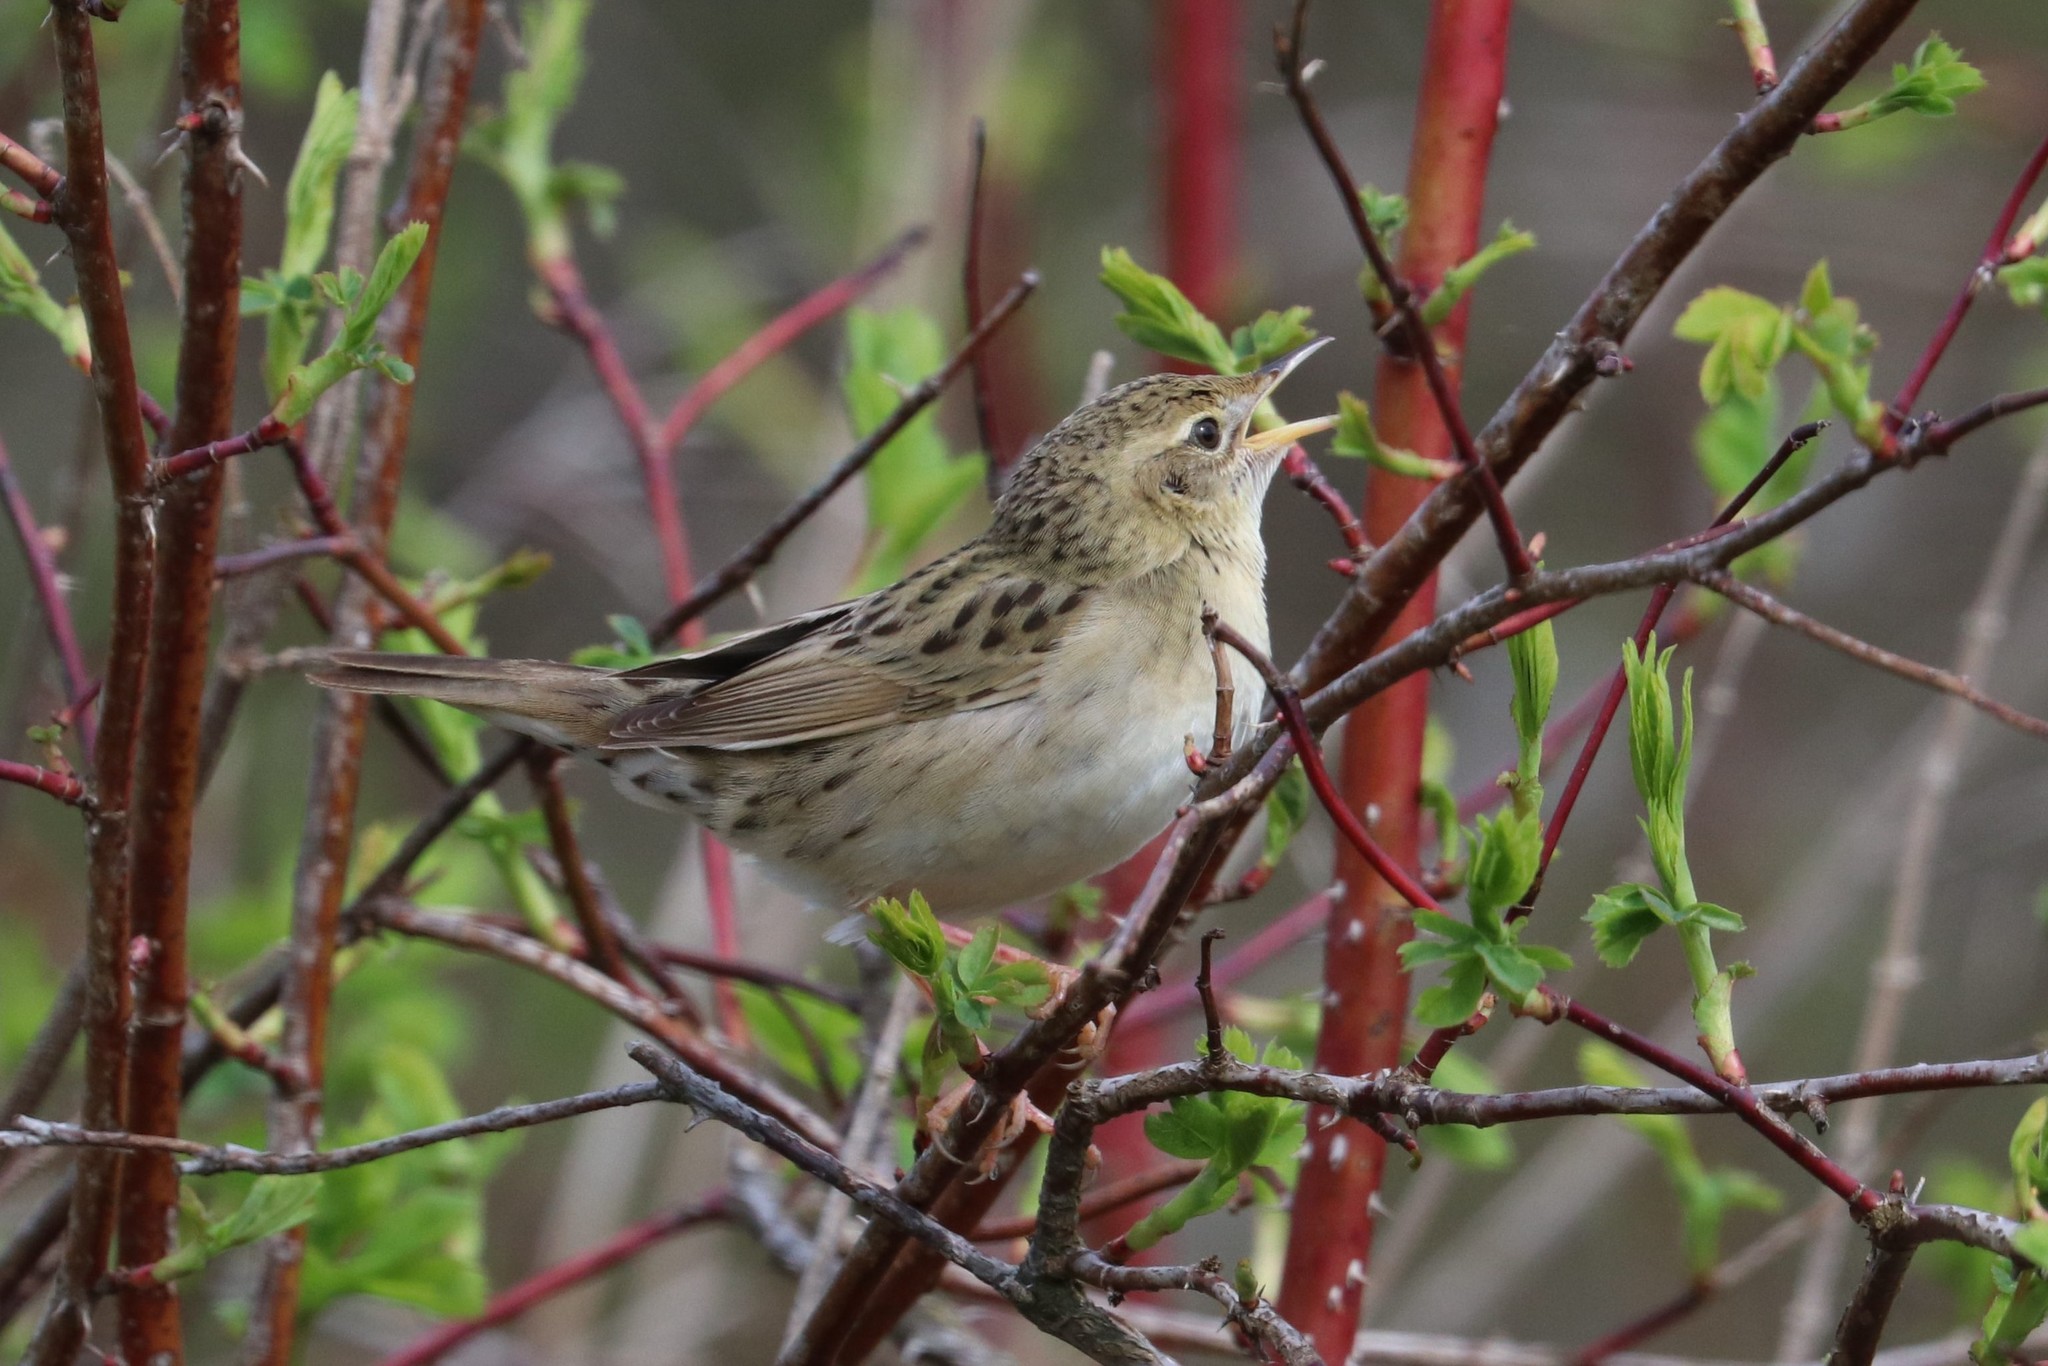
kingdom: Animalia
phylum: Chordata
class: Aves
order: Passeriformes
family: Locustellidae
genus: Locustella
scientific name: Locustella naevia
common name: Common grasshopper warbler
